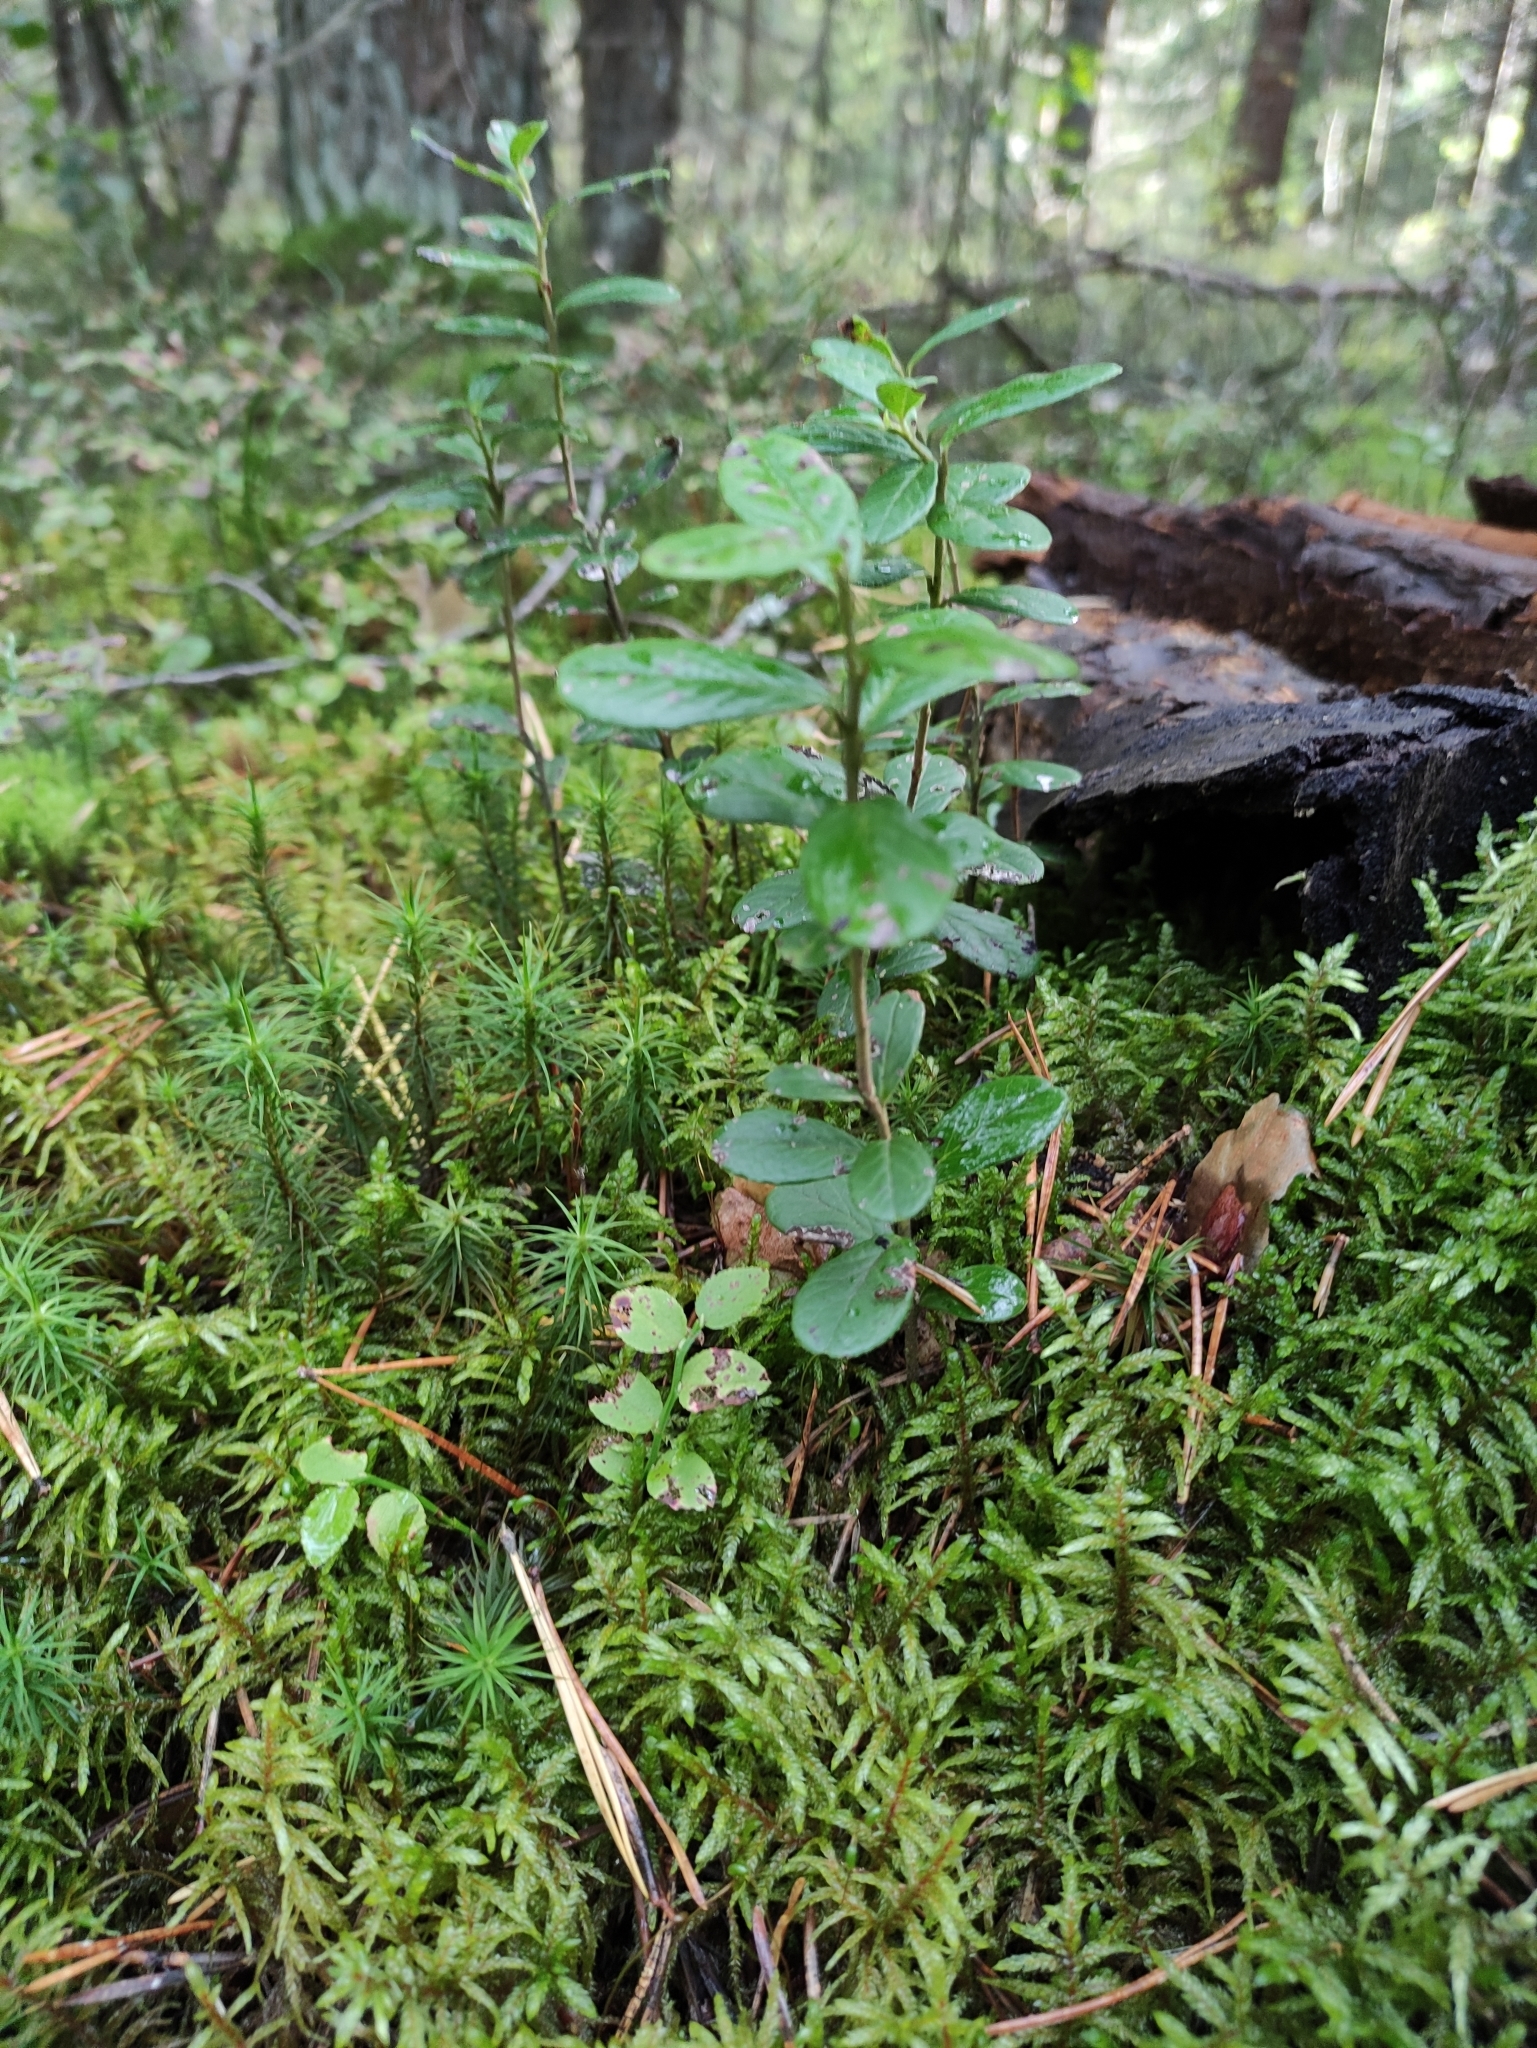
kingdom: Plantae
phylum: Tracheophyta
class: Magnoliopsida
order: Ericales
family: Ericaceae
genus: Vaccinium
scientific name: Vaccinium vitis-idaea
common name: Cowberry
